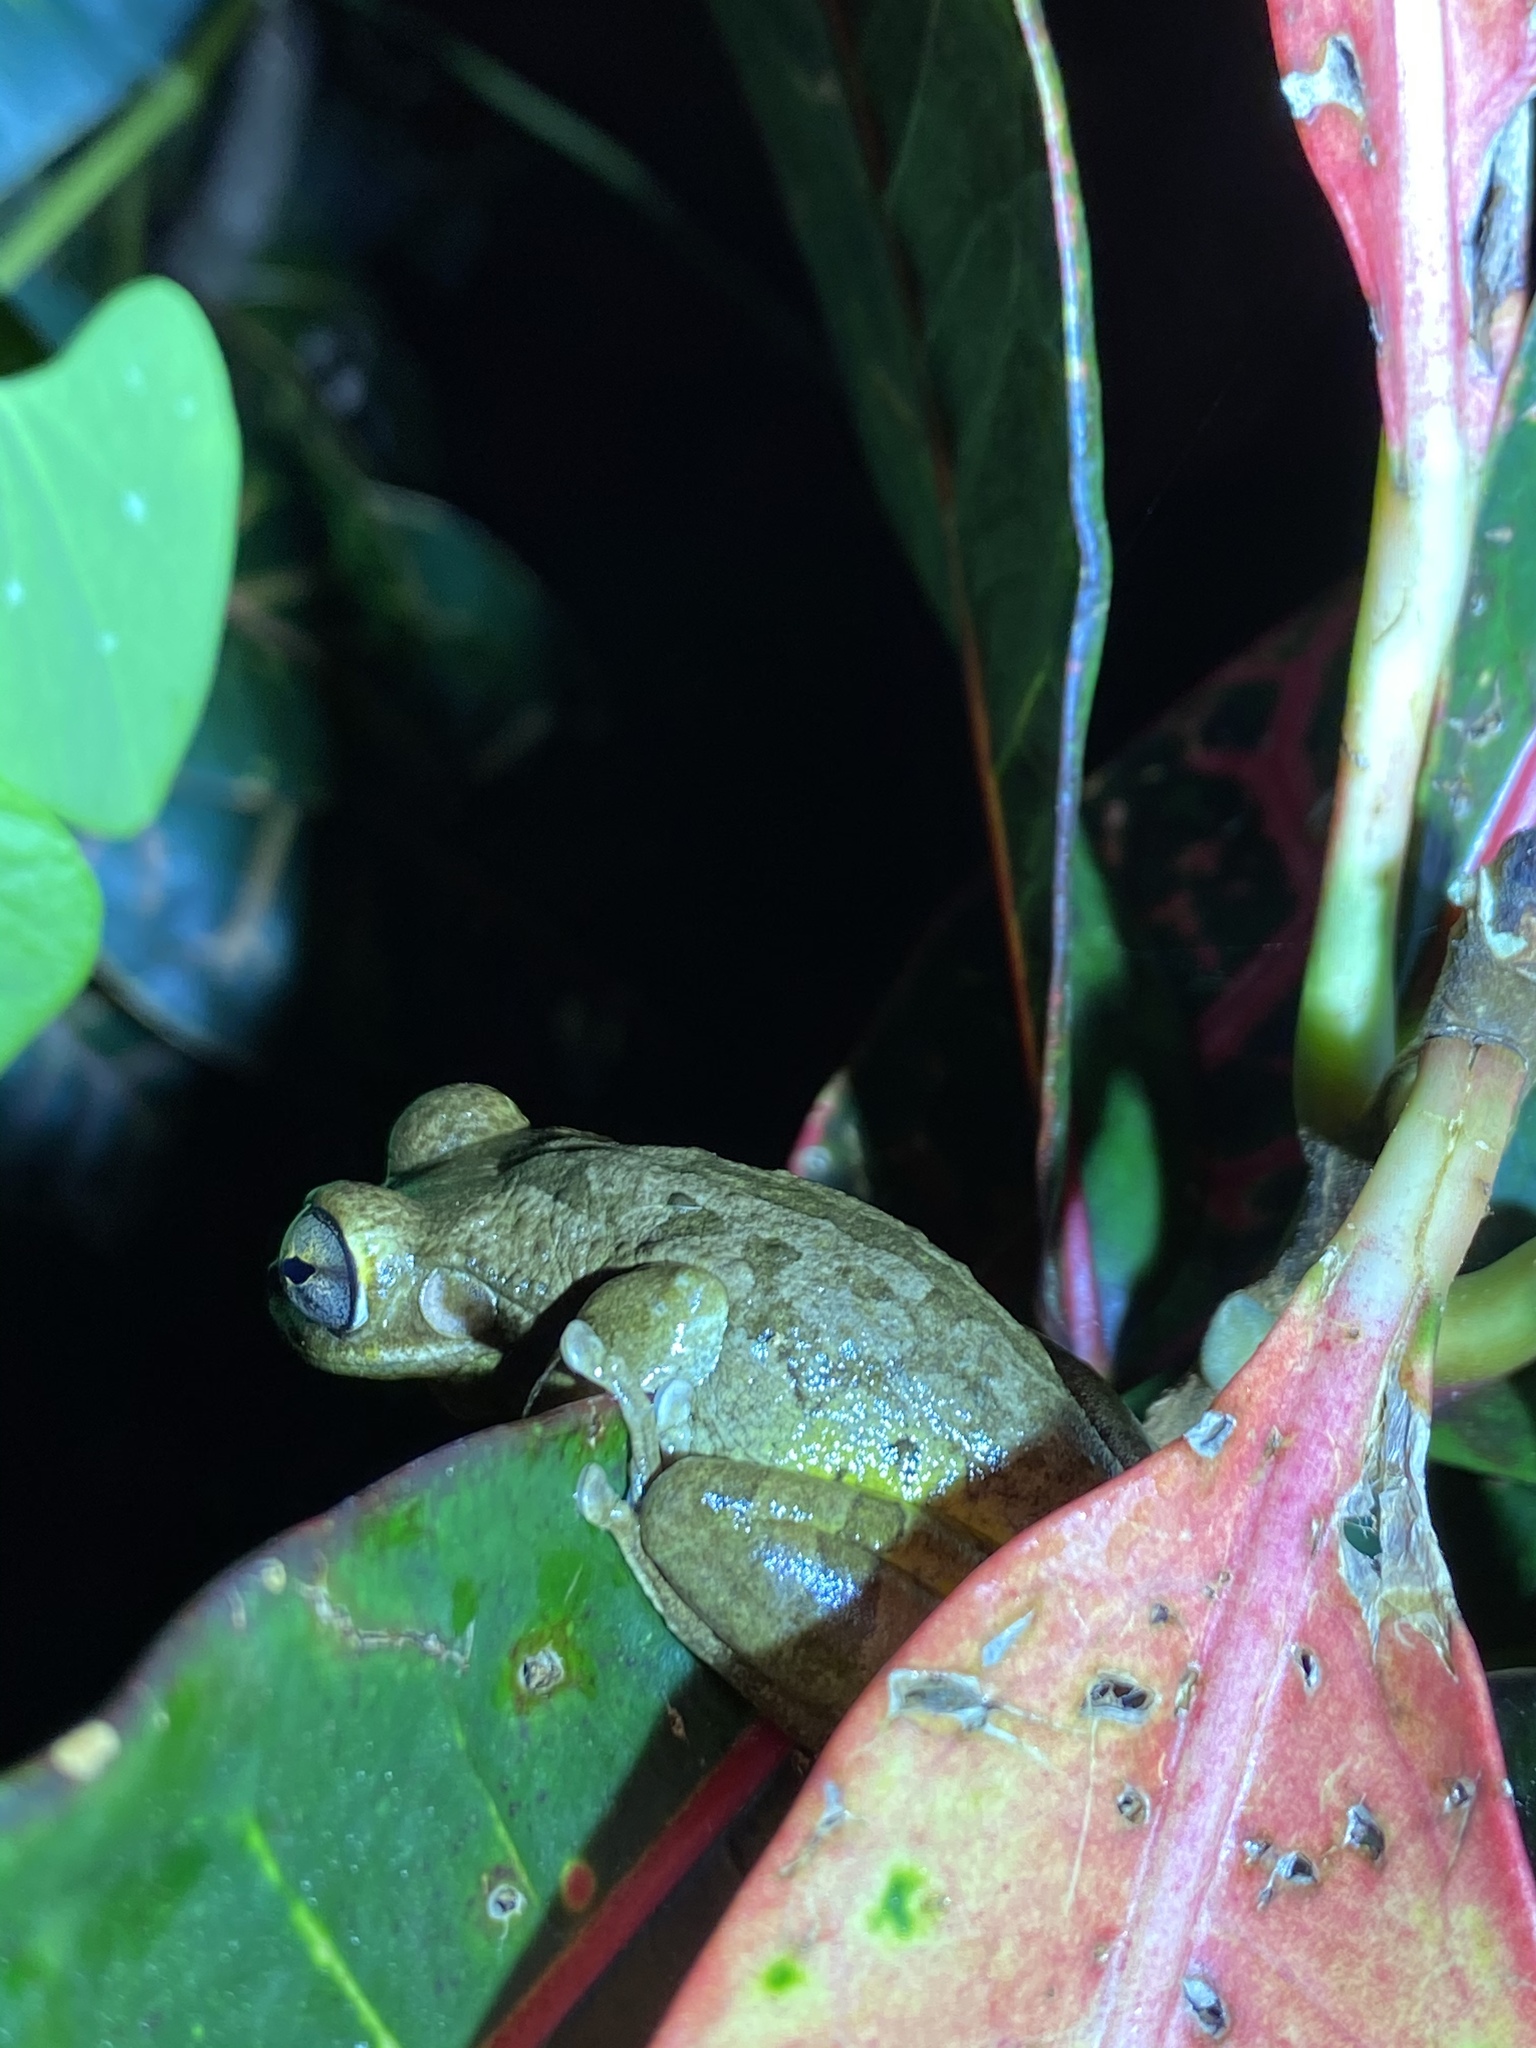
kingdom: Animalia
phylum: Chordata
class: Amphibia
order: Anura
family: Hylidae
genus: Osteopilus
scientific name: Osteopilus septentrionalis
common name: Cuban treefrog
